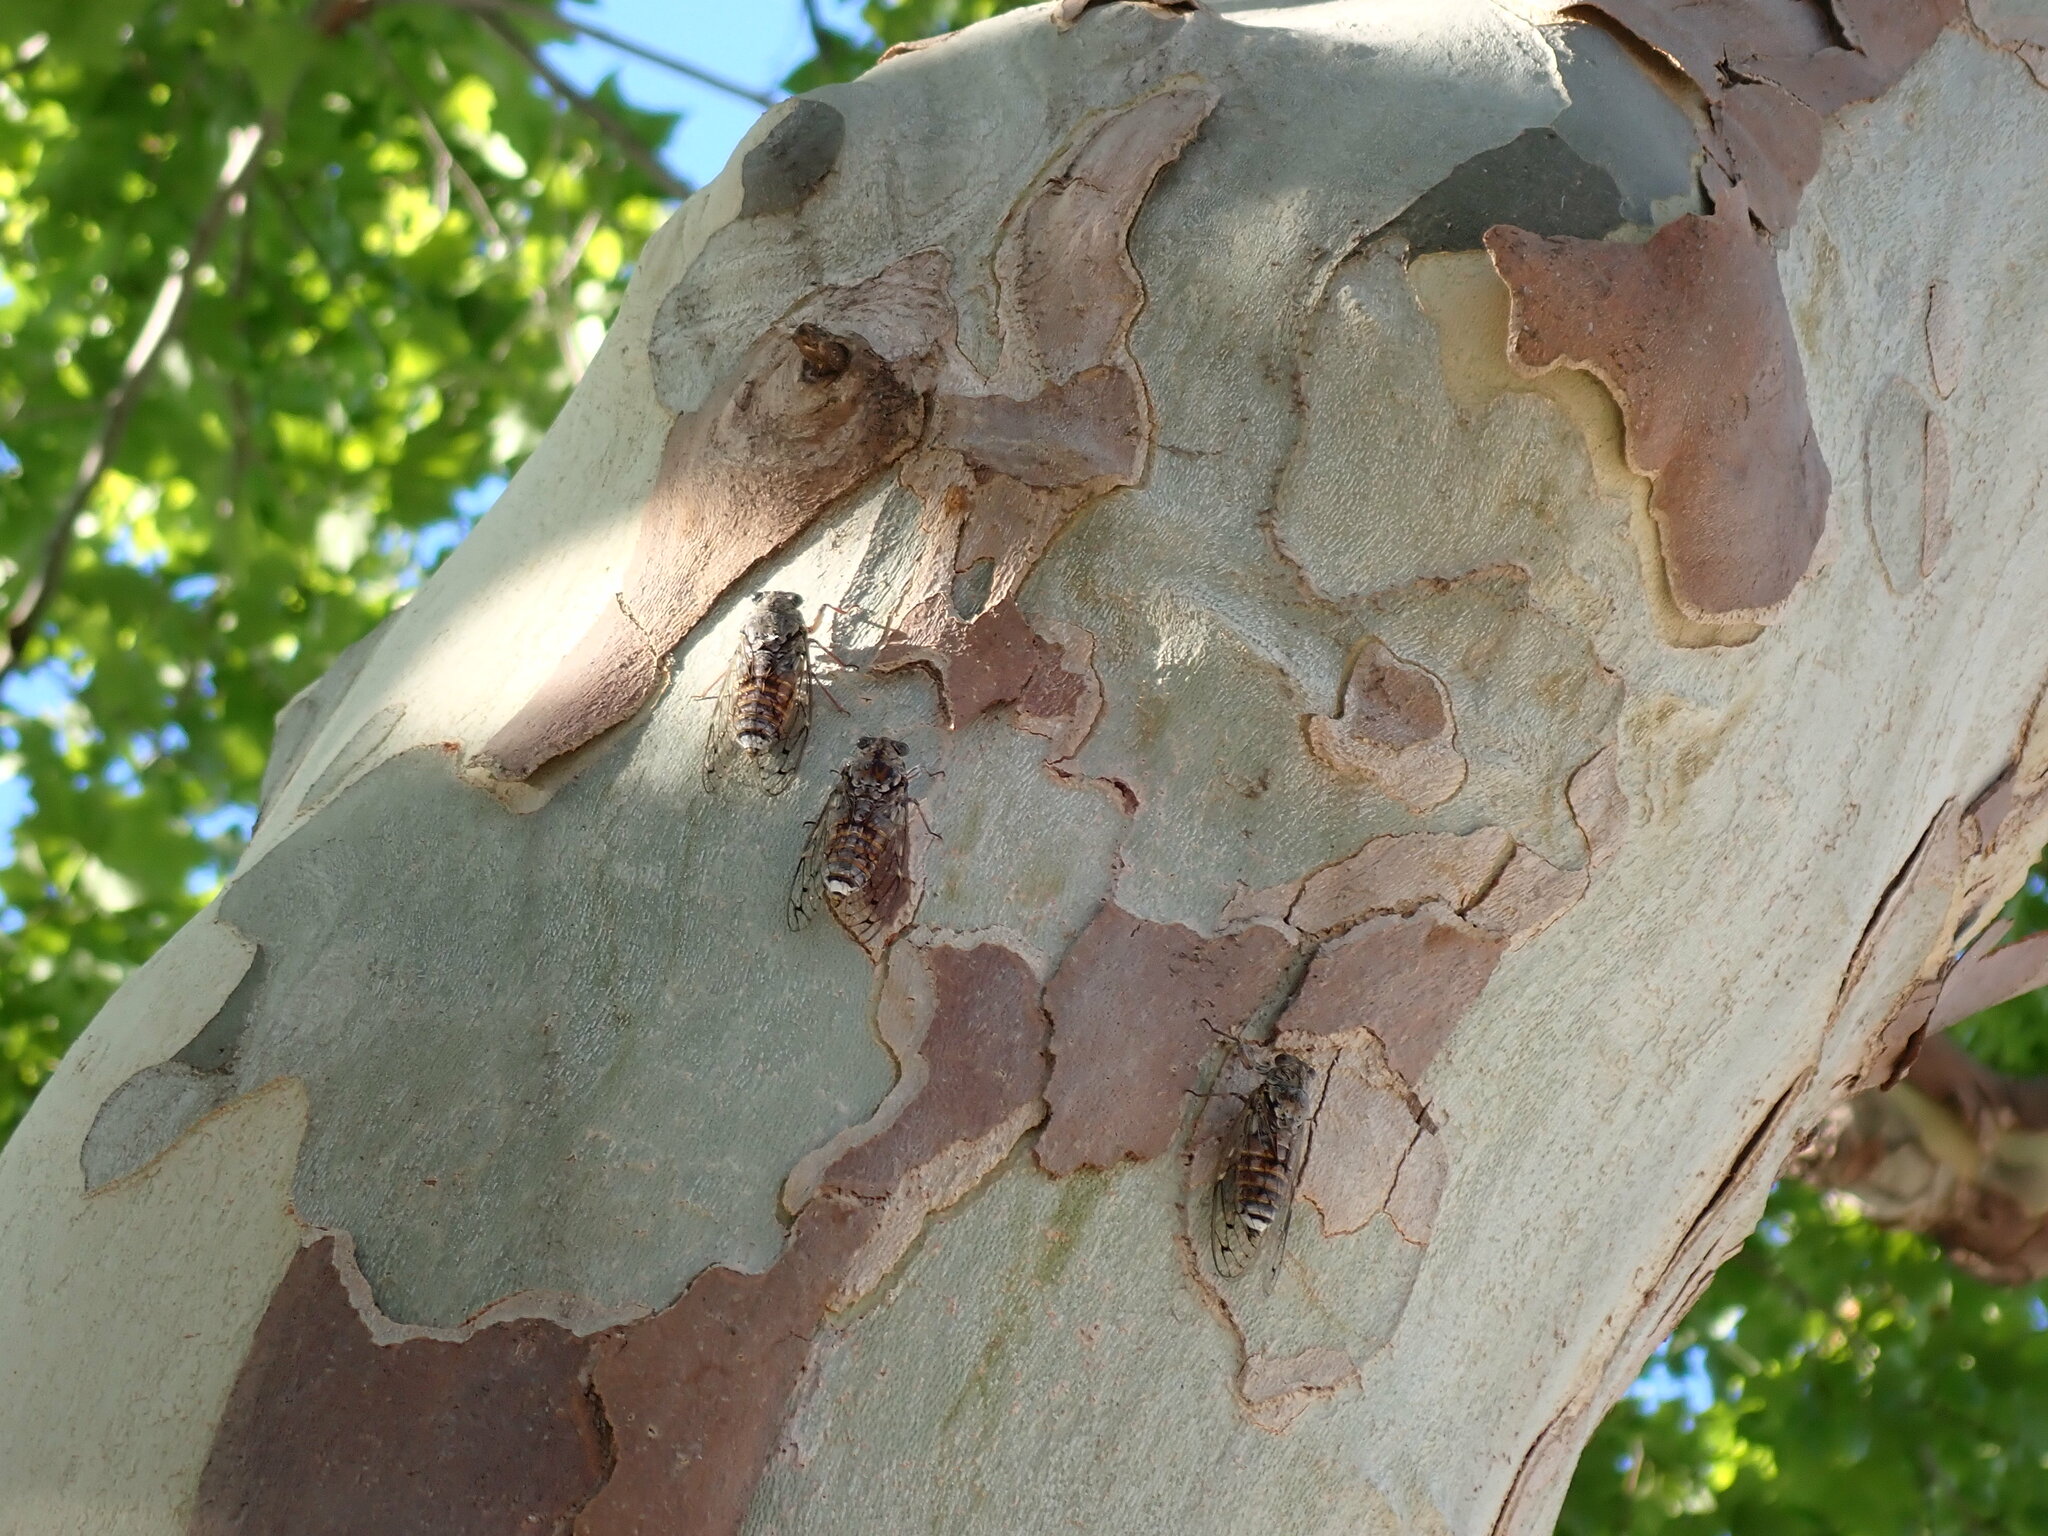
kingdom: Animalia
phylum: Arthropoda
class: Insecta
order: Hemiptera
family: Cicadidae
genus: Cicada
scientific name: Cicada orni
